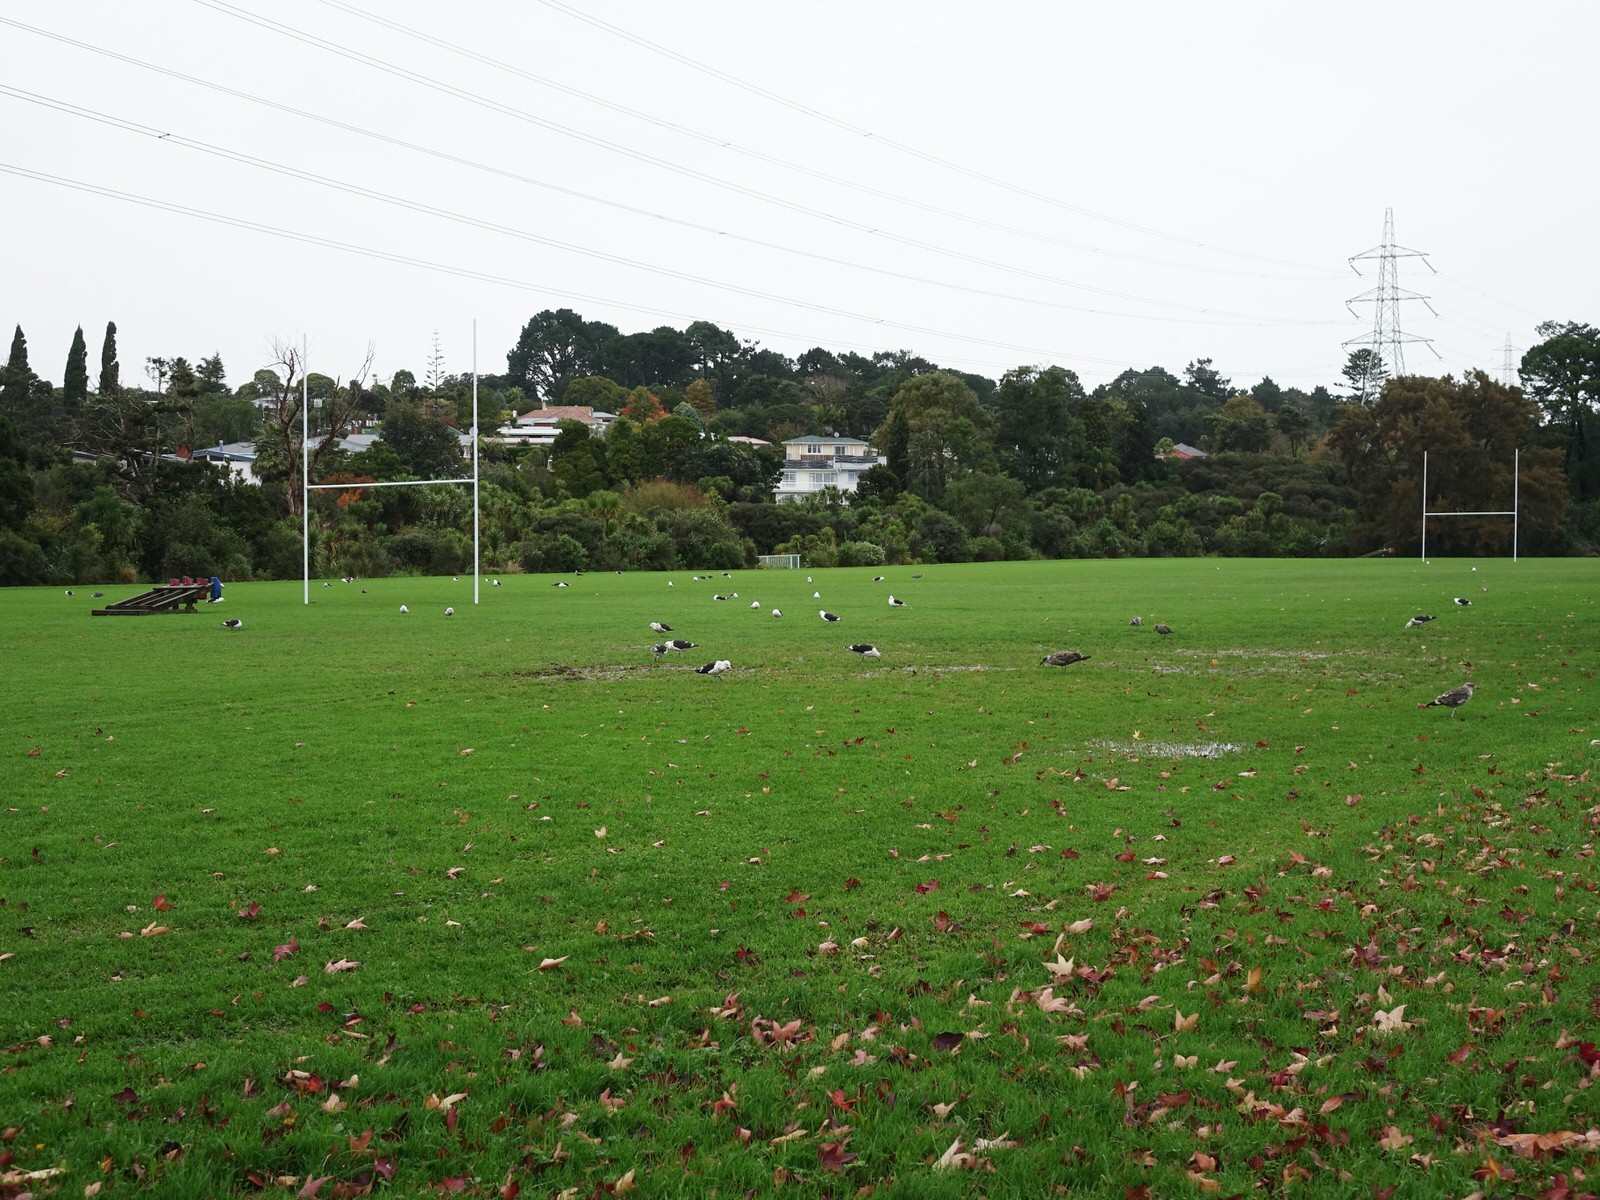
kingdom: Animalia
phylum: Chordata
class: Aves
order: Charadriiformes
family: Laridae
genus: Larus
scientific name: Larus dominicanus
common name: Kelp gull
